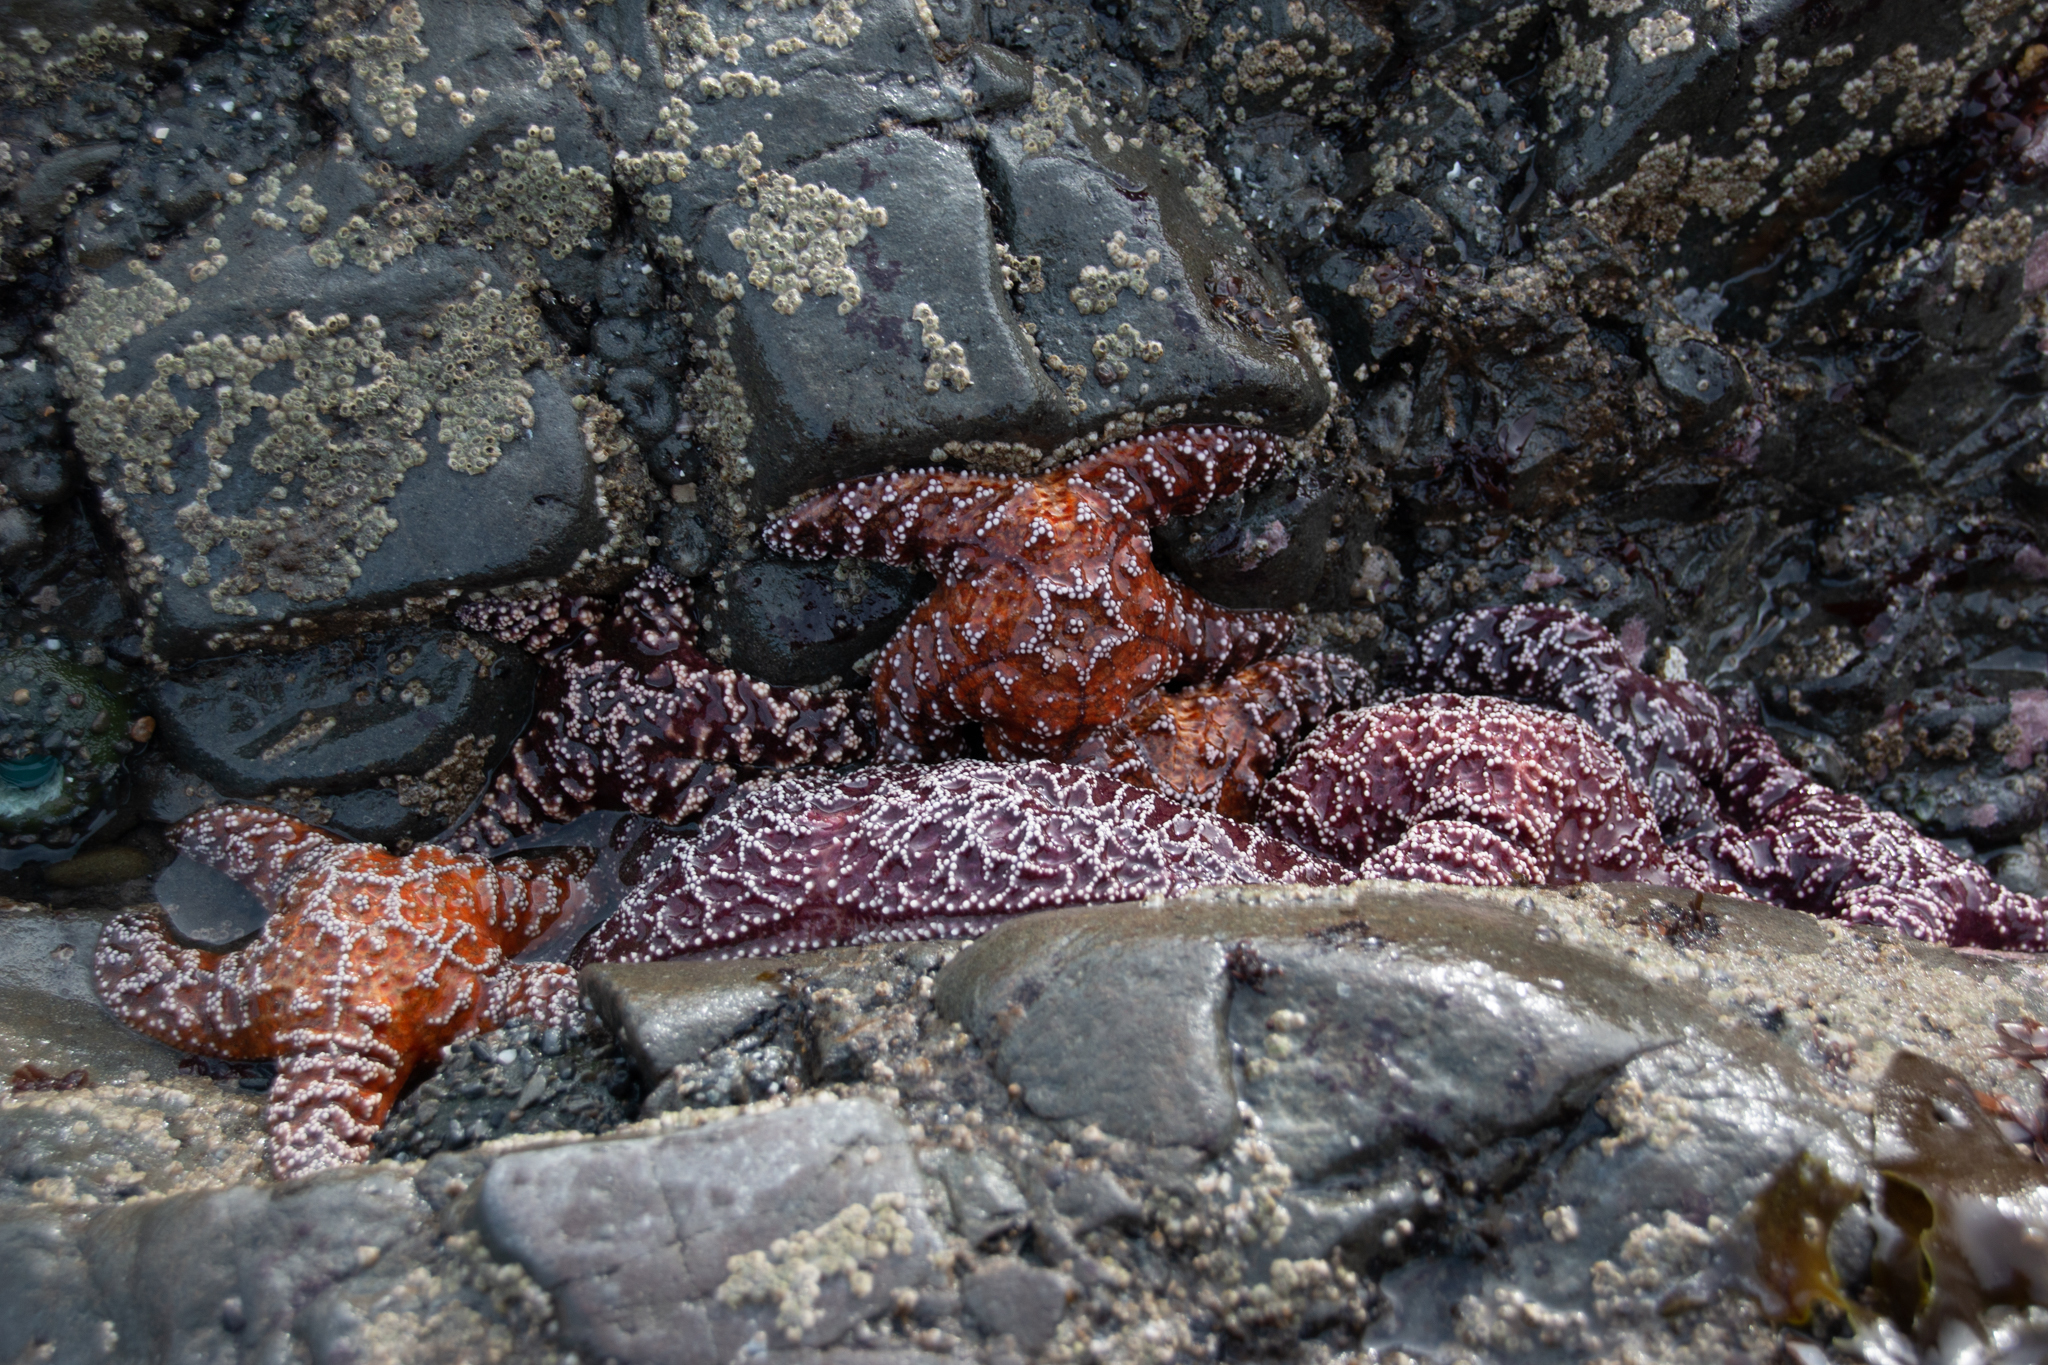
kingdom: Animalia
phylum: Echinodermata
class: Asteroidea
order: Forcipulatida
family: Asteriidae
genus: Pisaster
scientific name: Pisaster ochraceus
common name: Ochre stars
